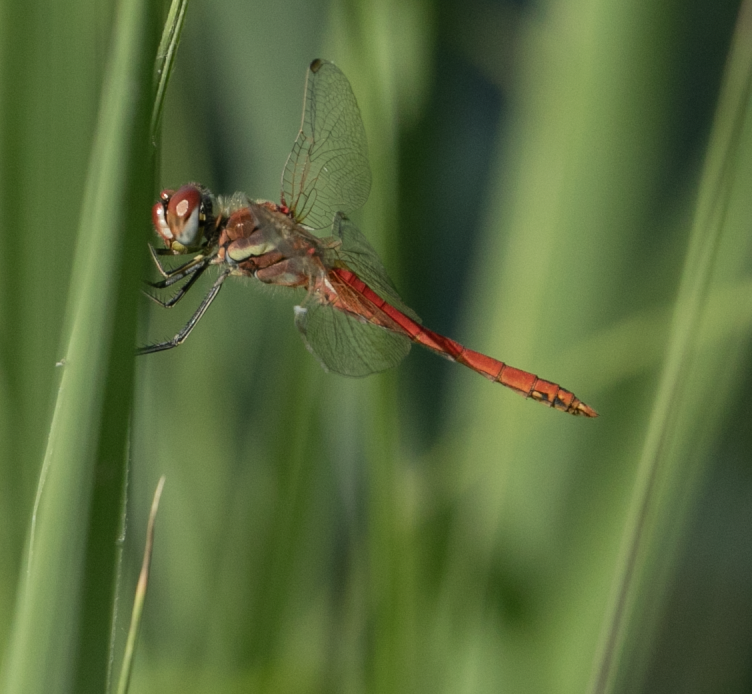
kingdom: Animalia
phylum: Arthropoda
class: Insecta
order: Odonata
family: Libellulidae
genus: Sympetrum
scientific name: Sympetrum fonscolombii
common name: Red-veined darter
